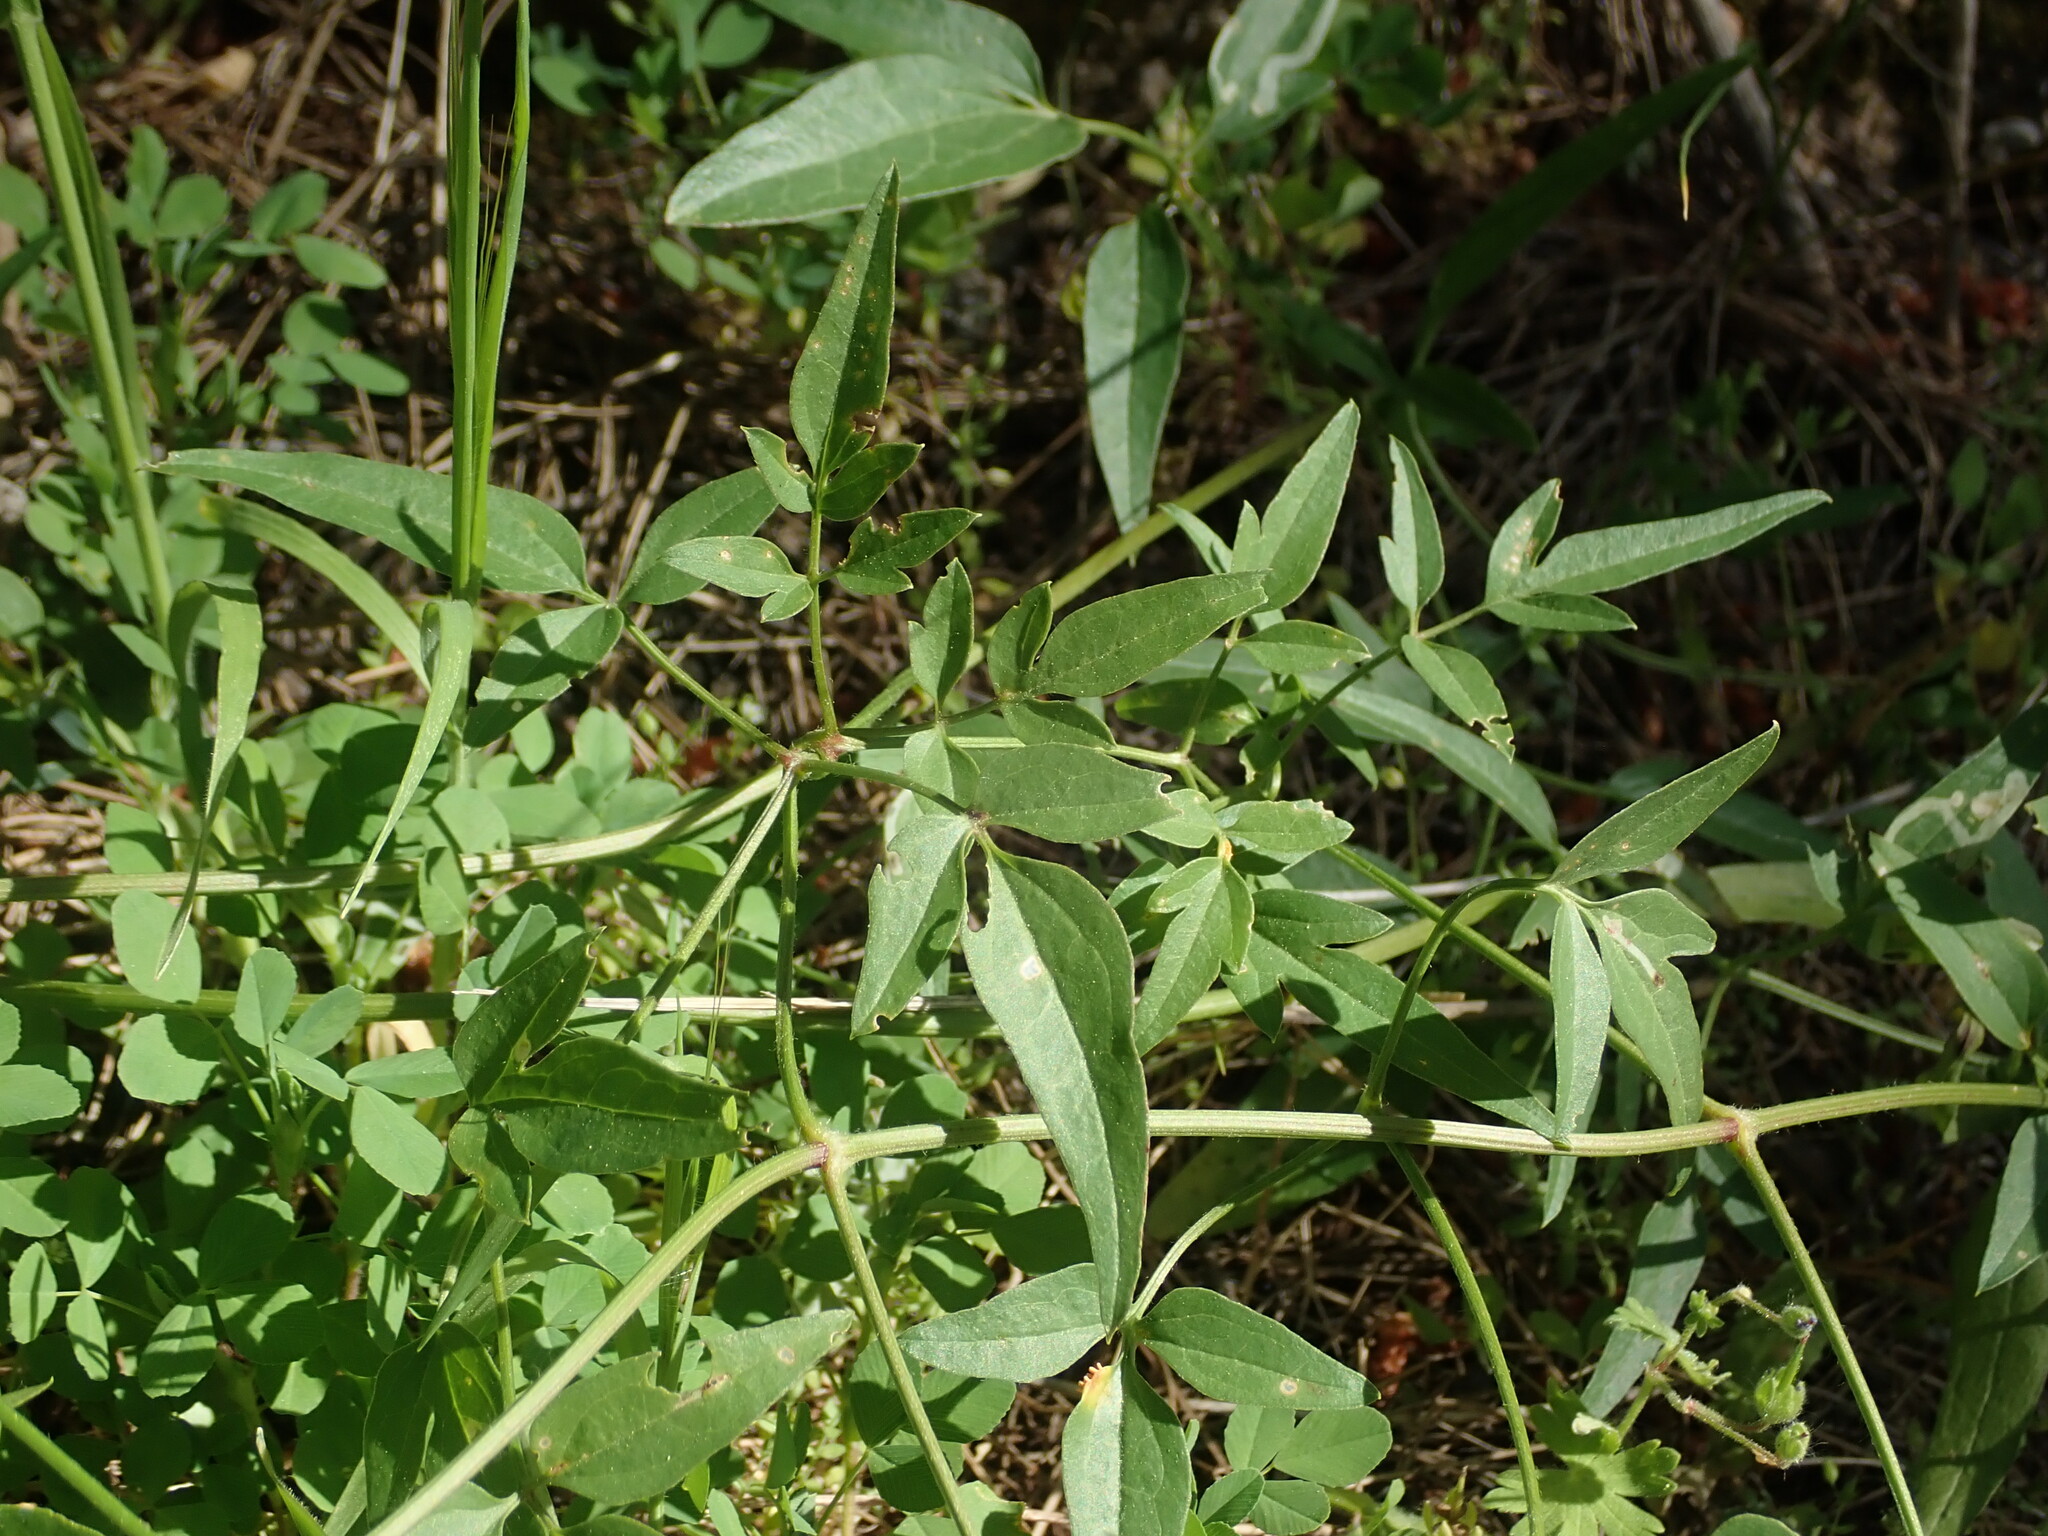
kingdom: Plantae
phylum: Tracheophyta
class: Magnoliopsida
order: Ranunculales
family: Ranunculaceae
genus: Clematis
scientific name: Clematis flammula
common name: Virgin's-bower
